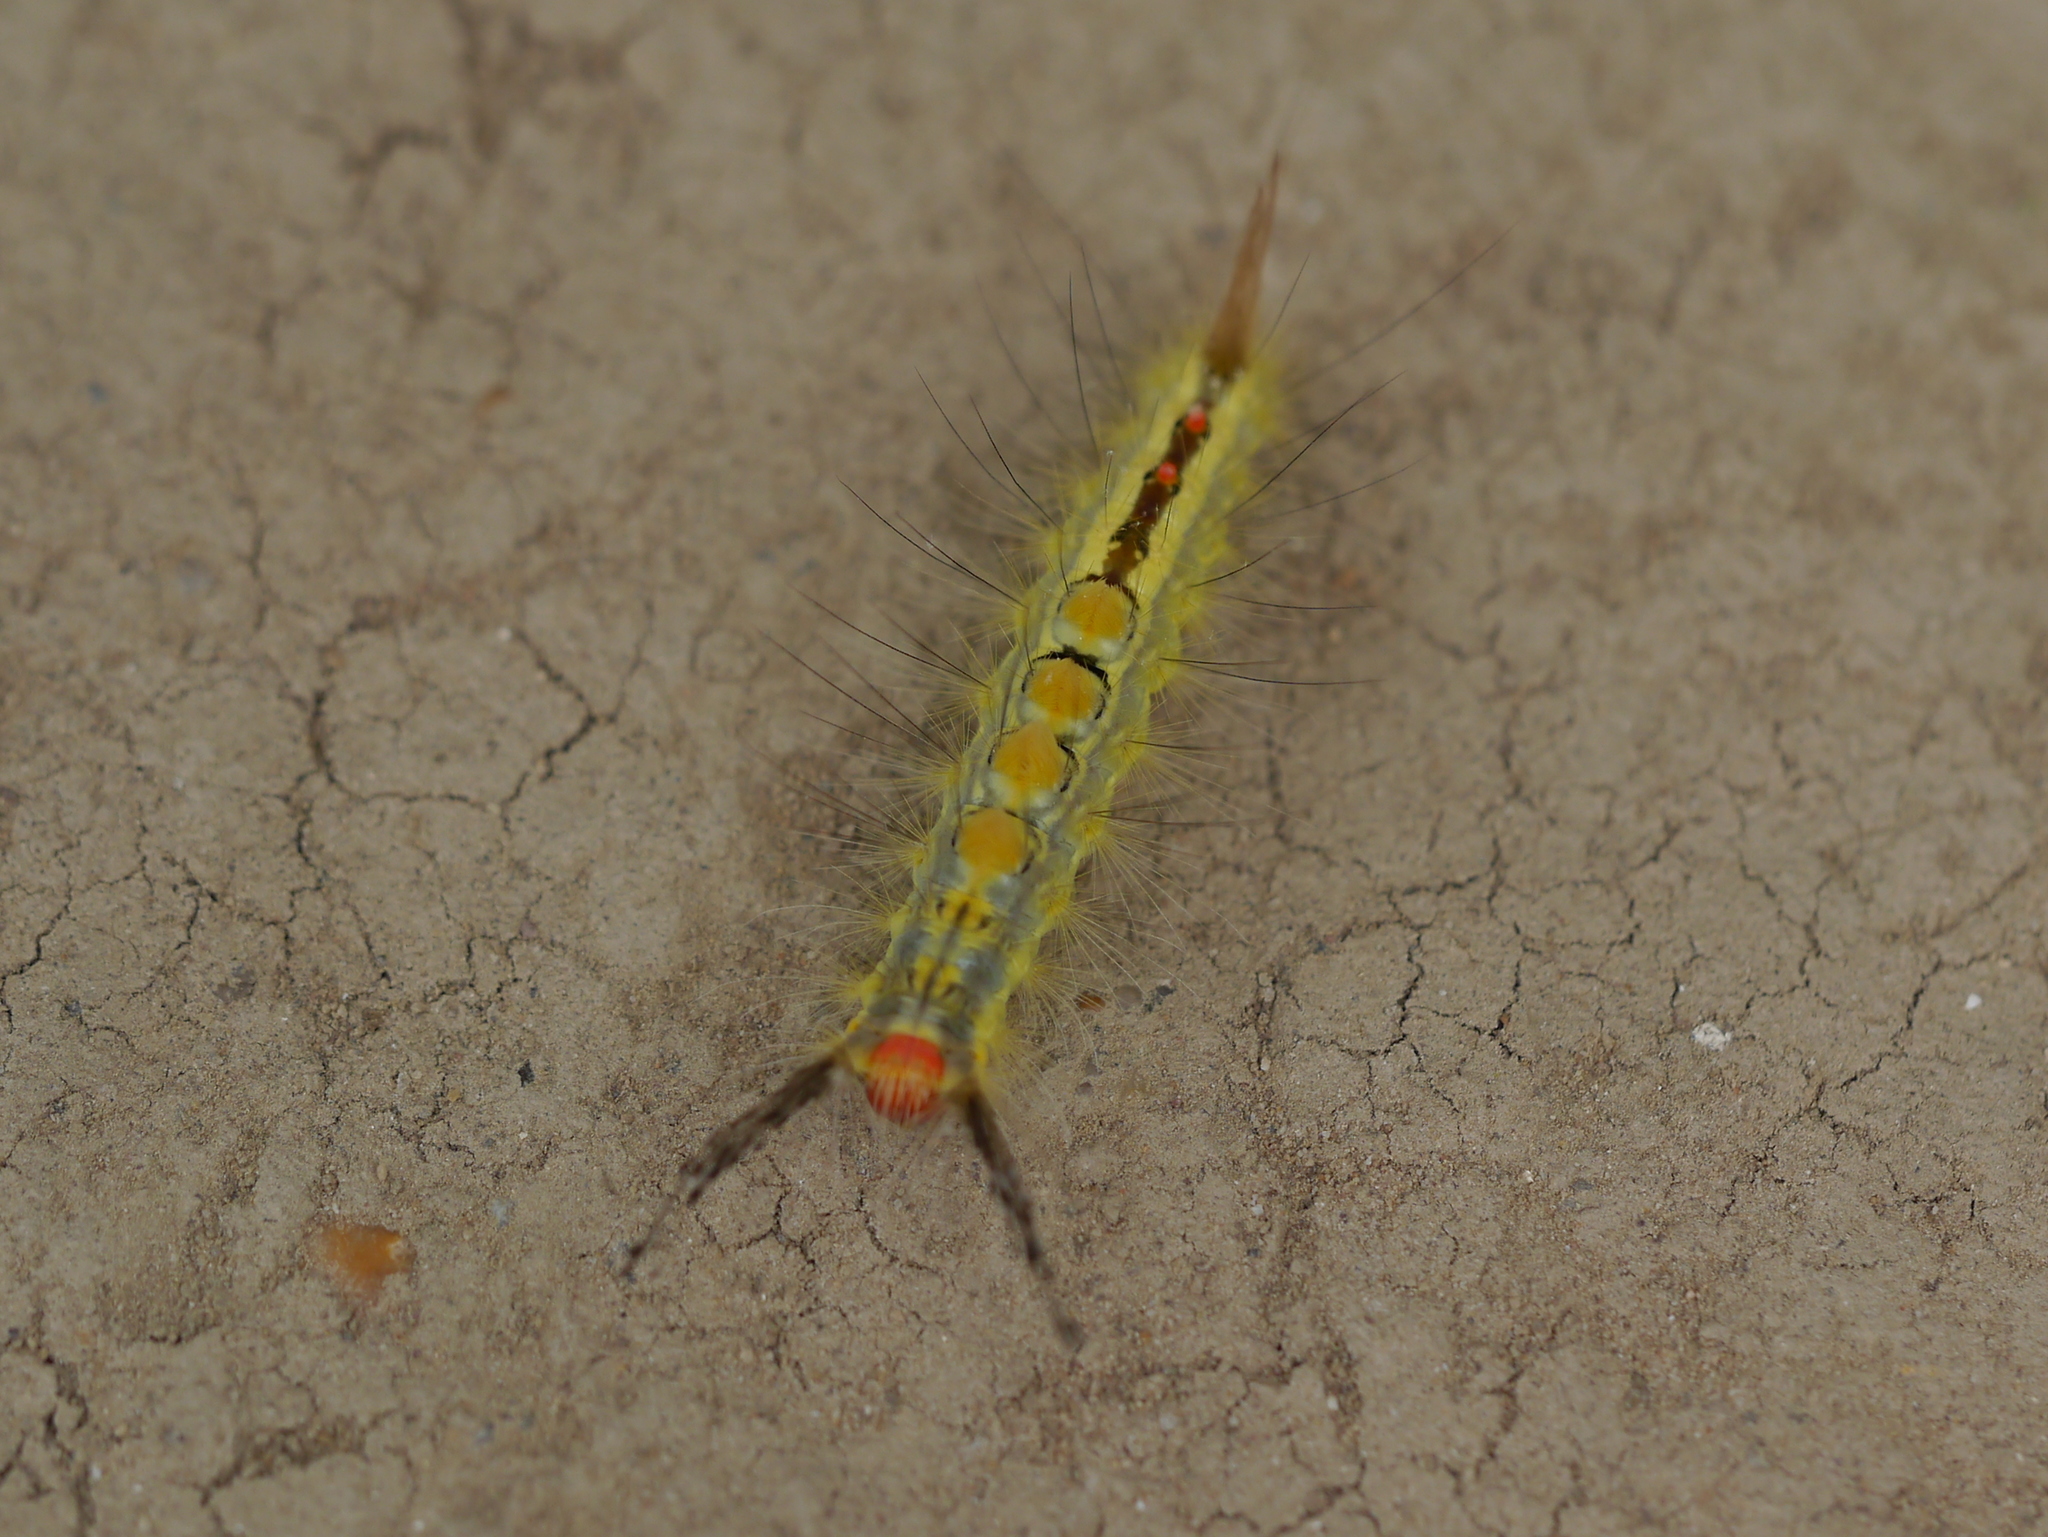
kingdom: Animalia
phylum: Arthropoda
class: Insecta
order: Lepidoptera
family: Erebidae
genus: Orgyia
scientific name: Orgyia leucostigma
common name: White-marked tussock moth
